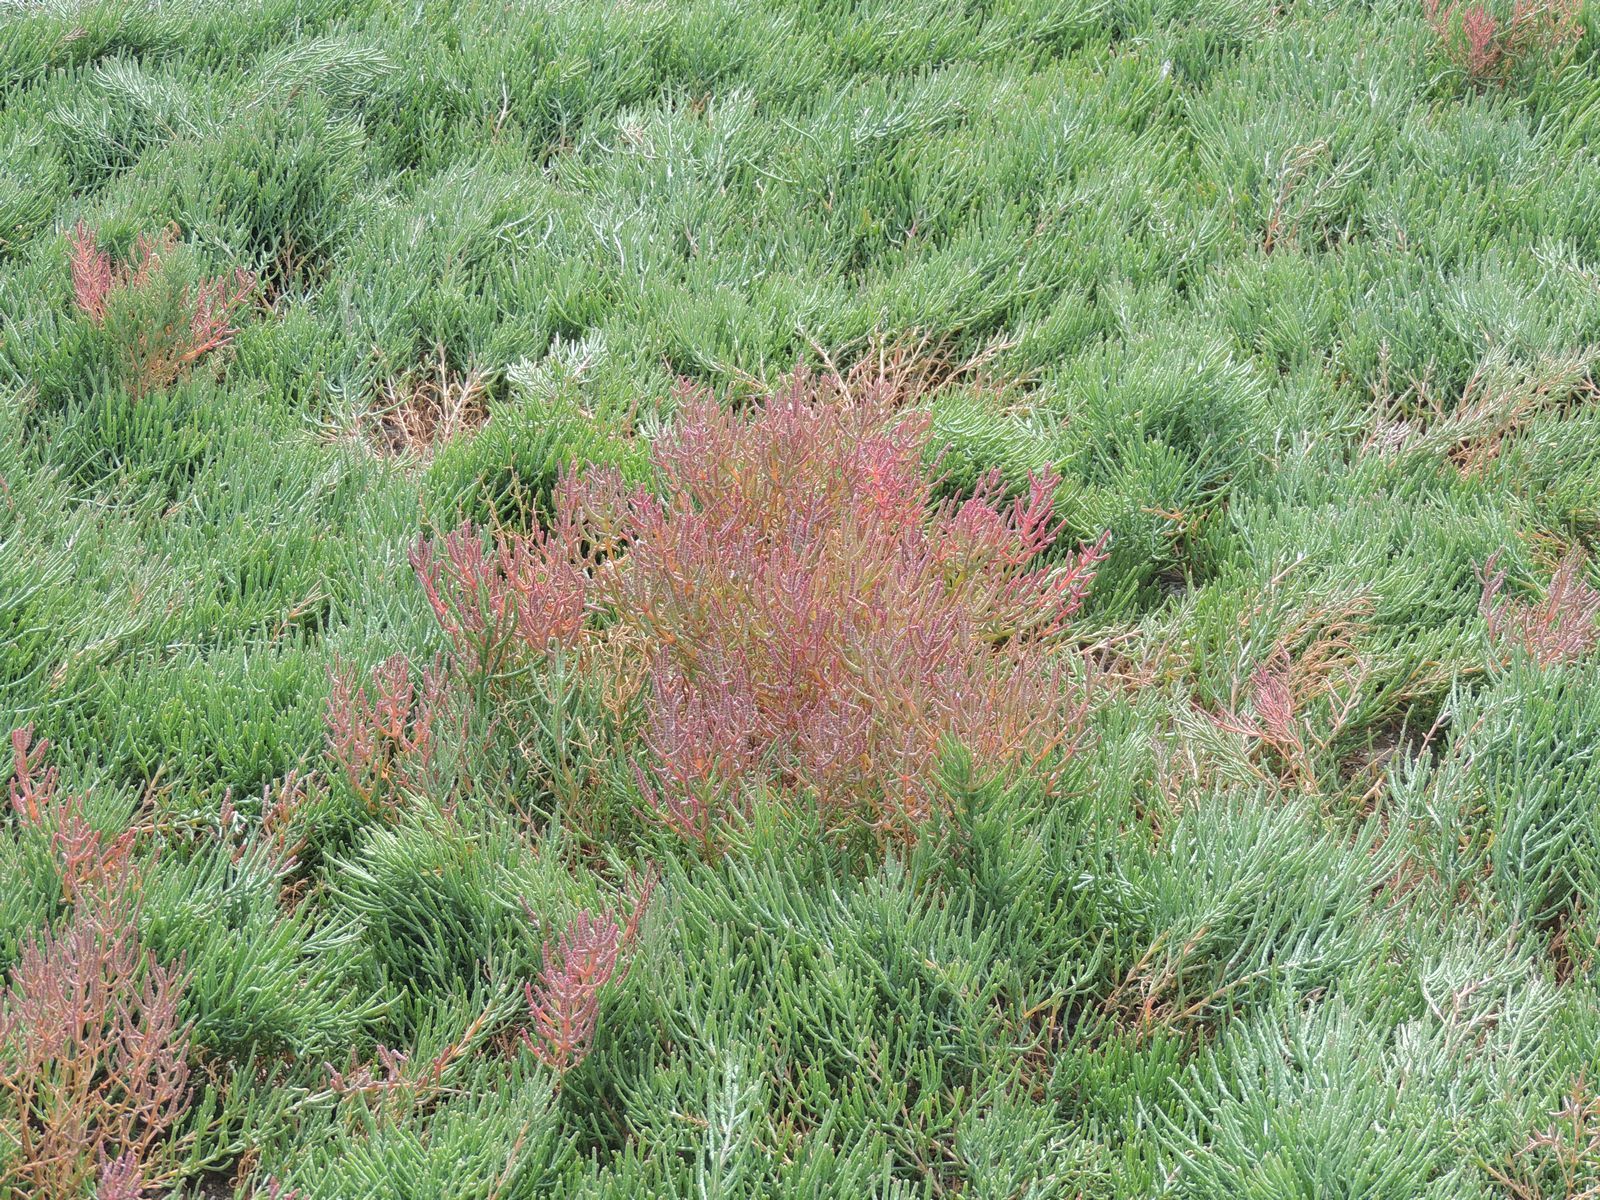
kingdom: Plantae
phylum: Tracheophyta
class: Magnoliopsida
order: Caryophyllales
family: Amaranthaceae
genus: Salicornia
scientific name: Salicornia perennans
